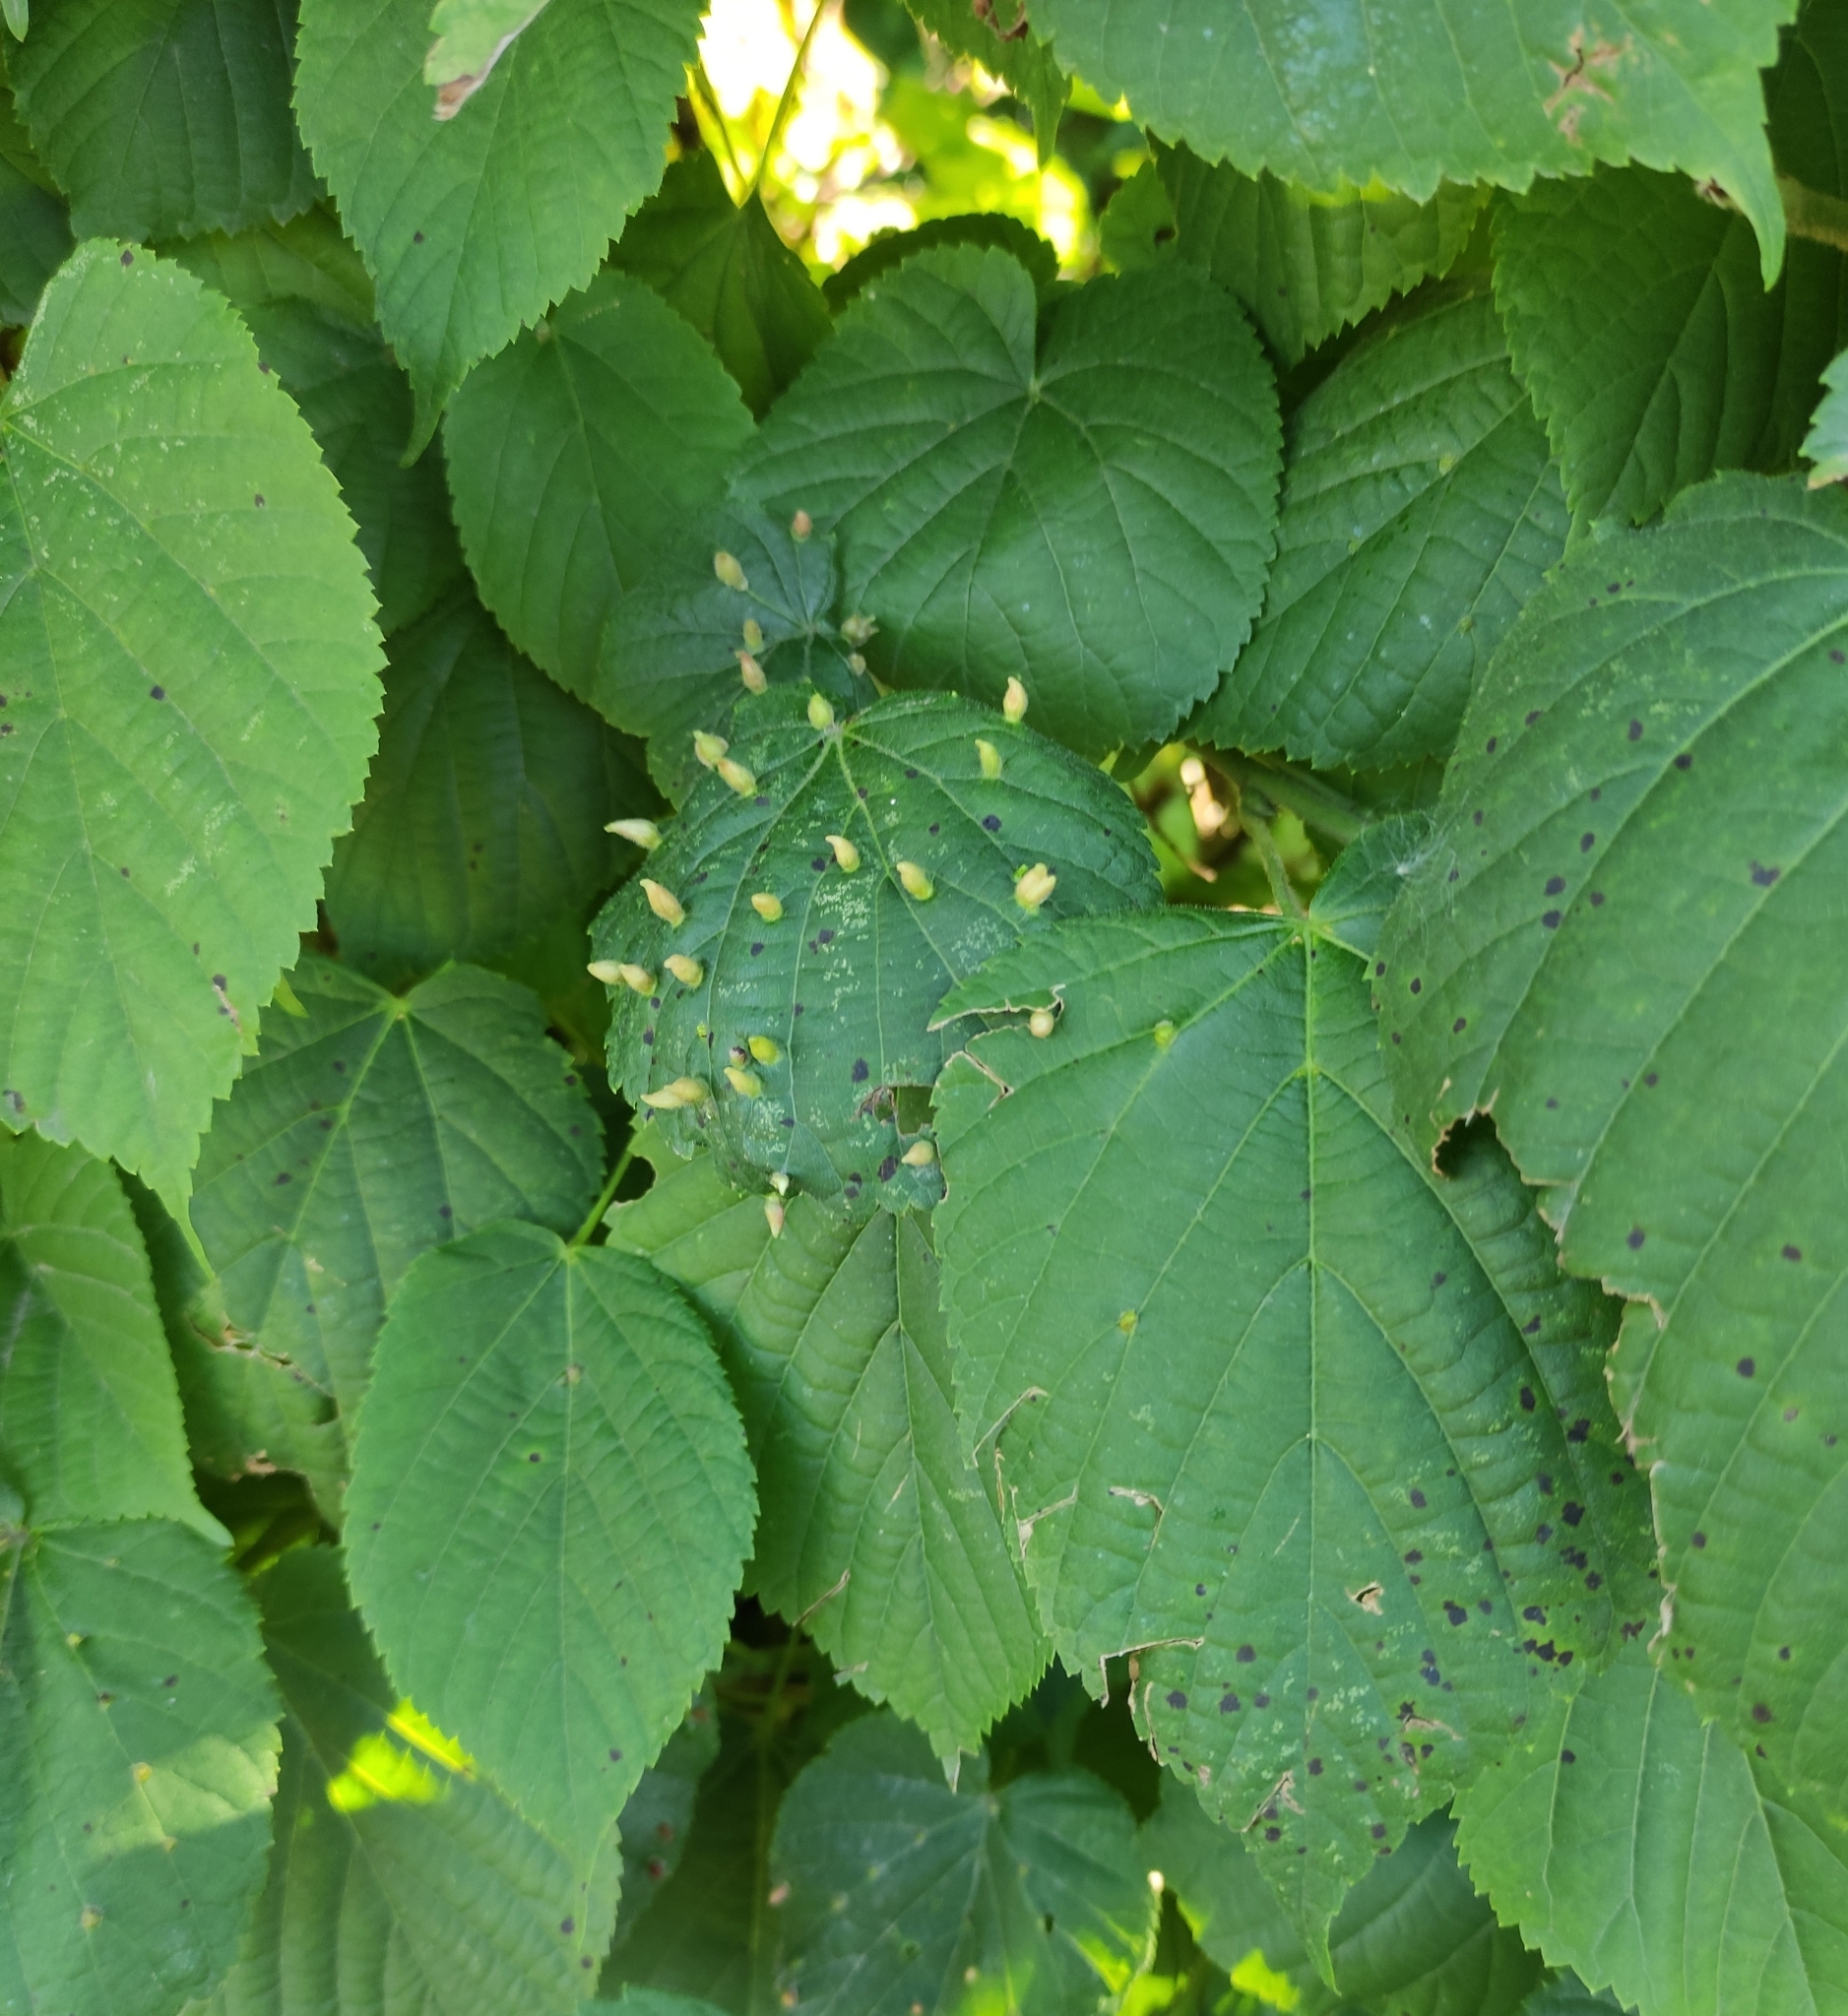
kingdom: Animalia
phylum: Arthropoda
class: Arachnida
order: Trombidiformes
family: Eriophyidae
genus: Eriophyes
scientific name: Eriophyes tiliae
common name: Red nail gall mite
